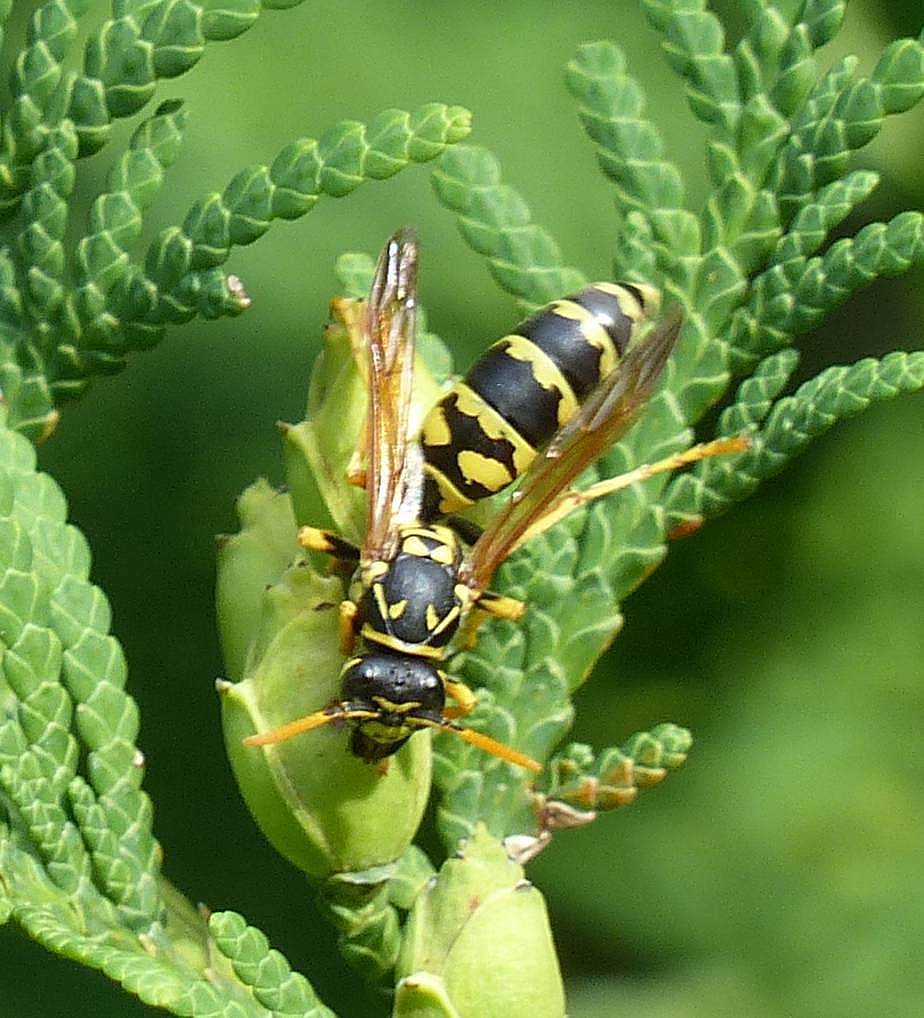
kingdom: Animalia
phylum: Arthropoda
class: Insecta
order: Hymenoptera
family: Eumenidae
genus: Polistes
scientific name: Polistes dominula
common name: Paper wasp
